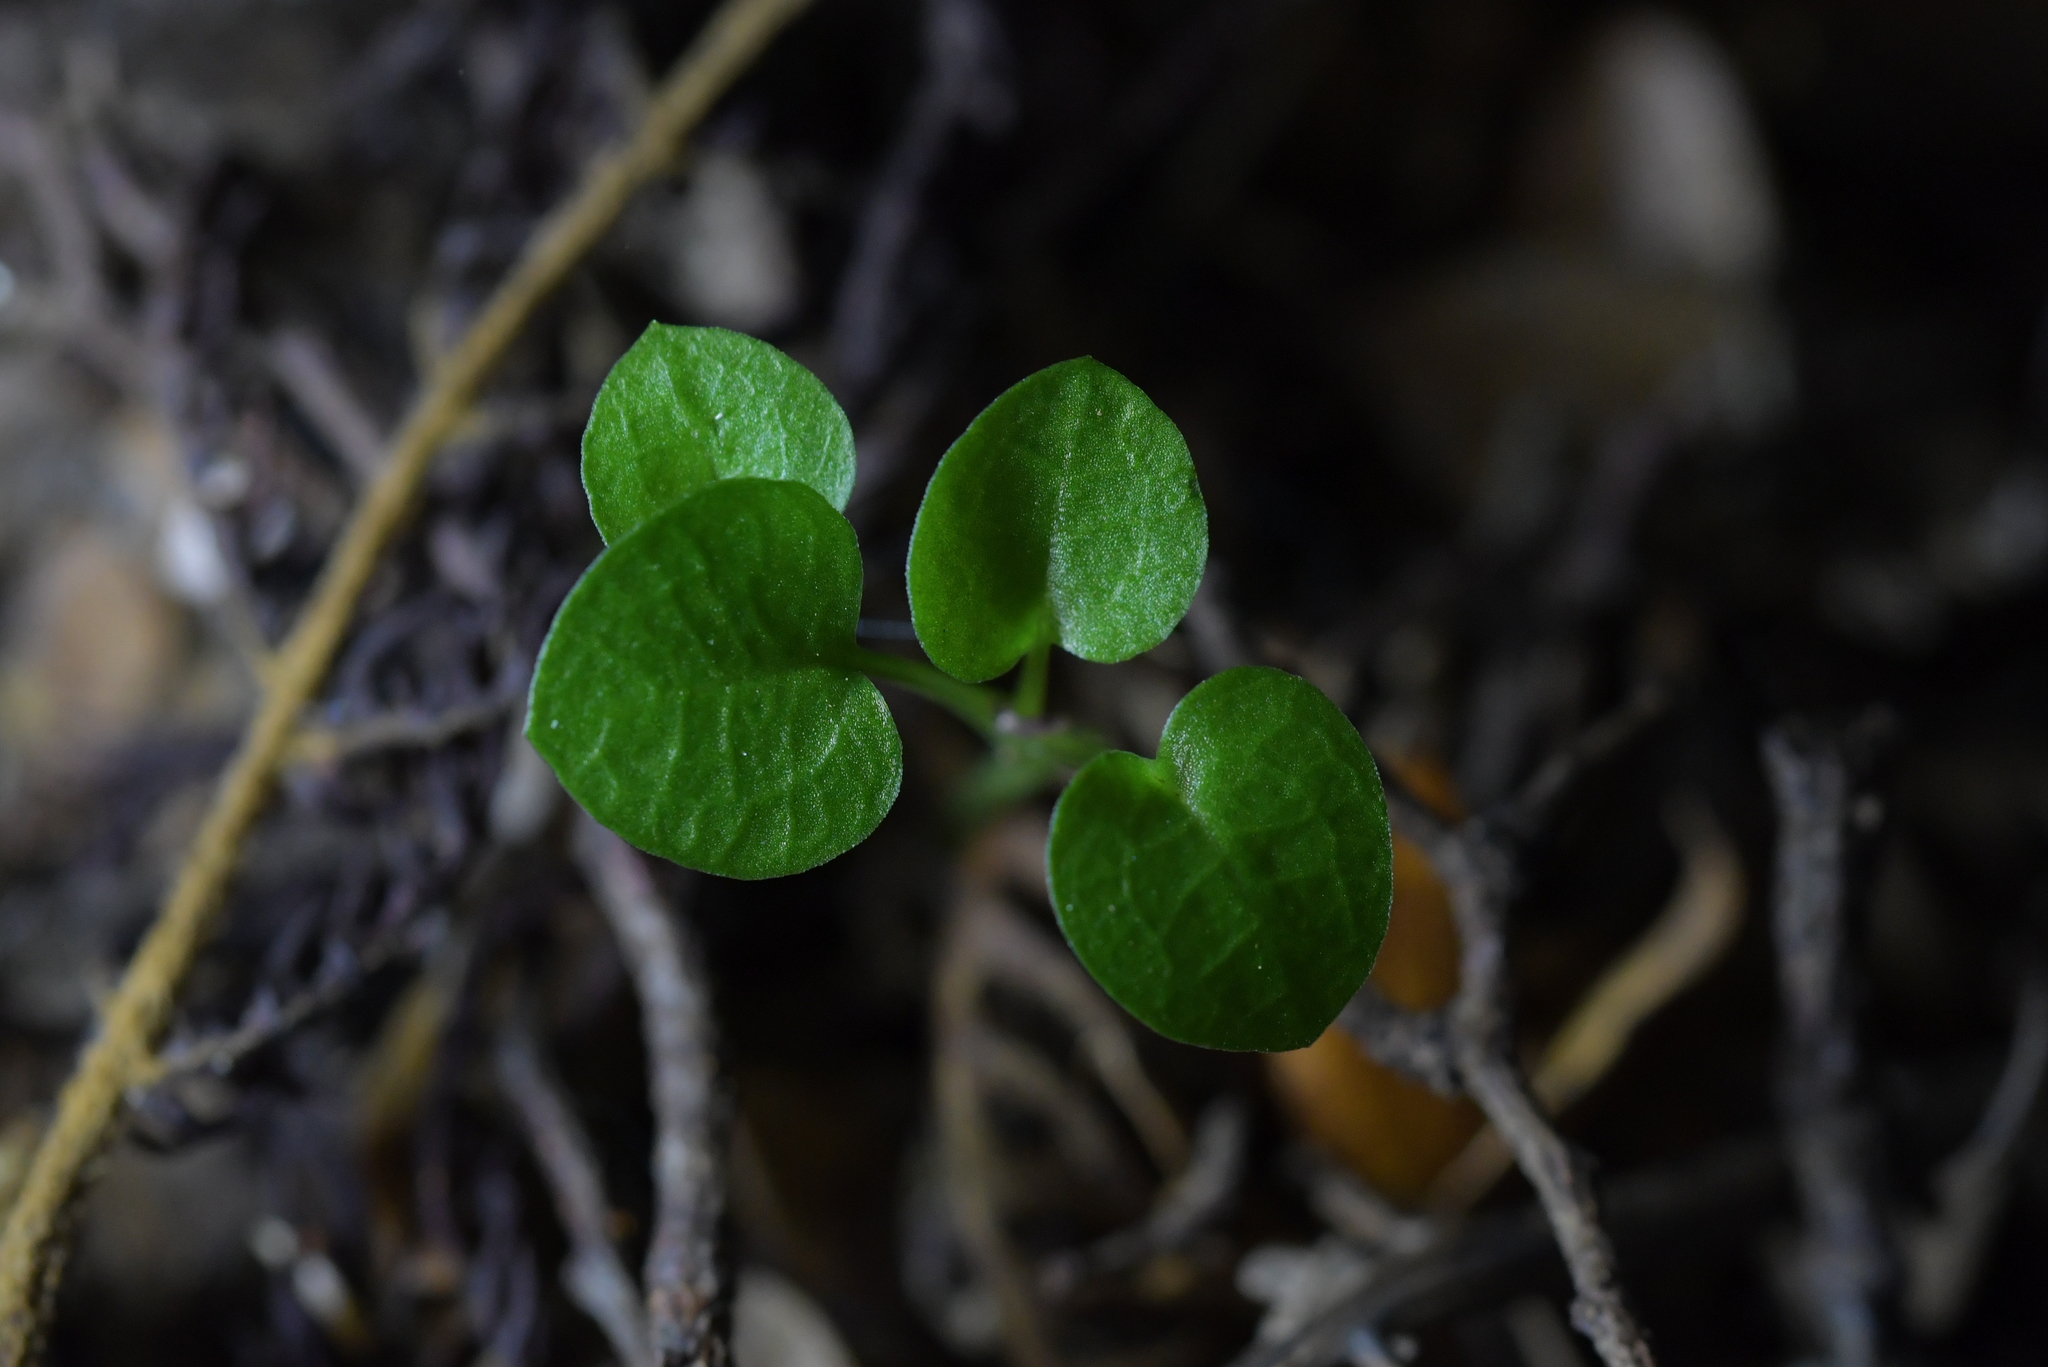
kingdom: Plantae
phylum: Tracheophyta
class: Liliopsida
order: Asparagales
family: Orchidaceae
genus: Pterostylis
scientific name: Pterostylis alobula
